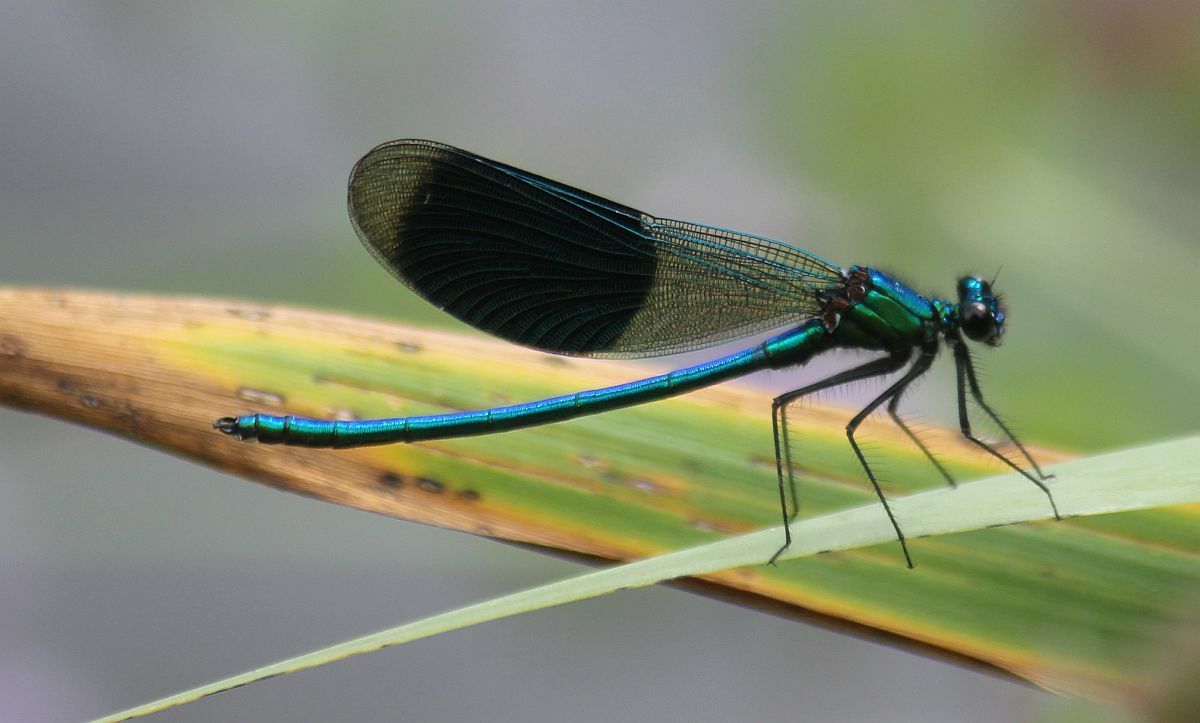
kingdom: Animalia
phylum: Arthropoda
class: Insecta
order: Odonata
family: Calopterygidae
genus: Calopteryx
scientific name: Calopteryx splendens
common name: Banded demoiselle
